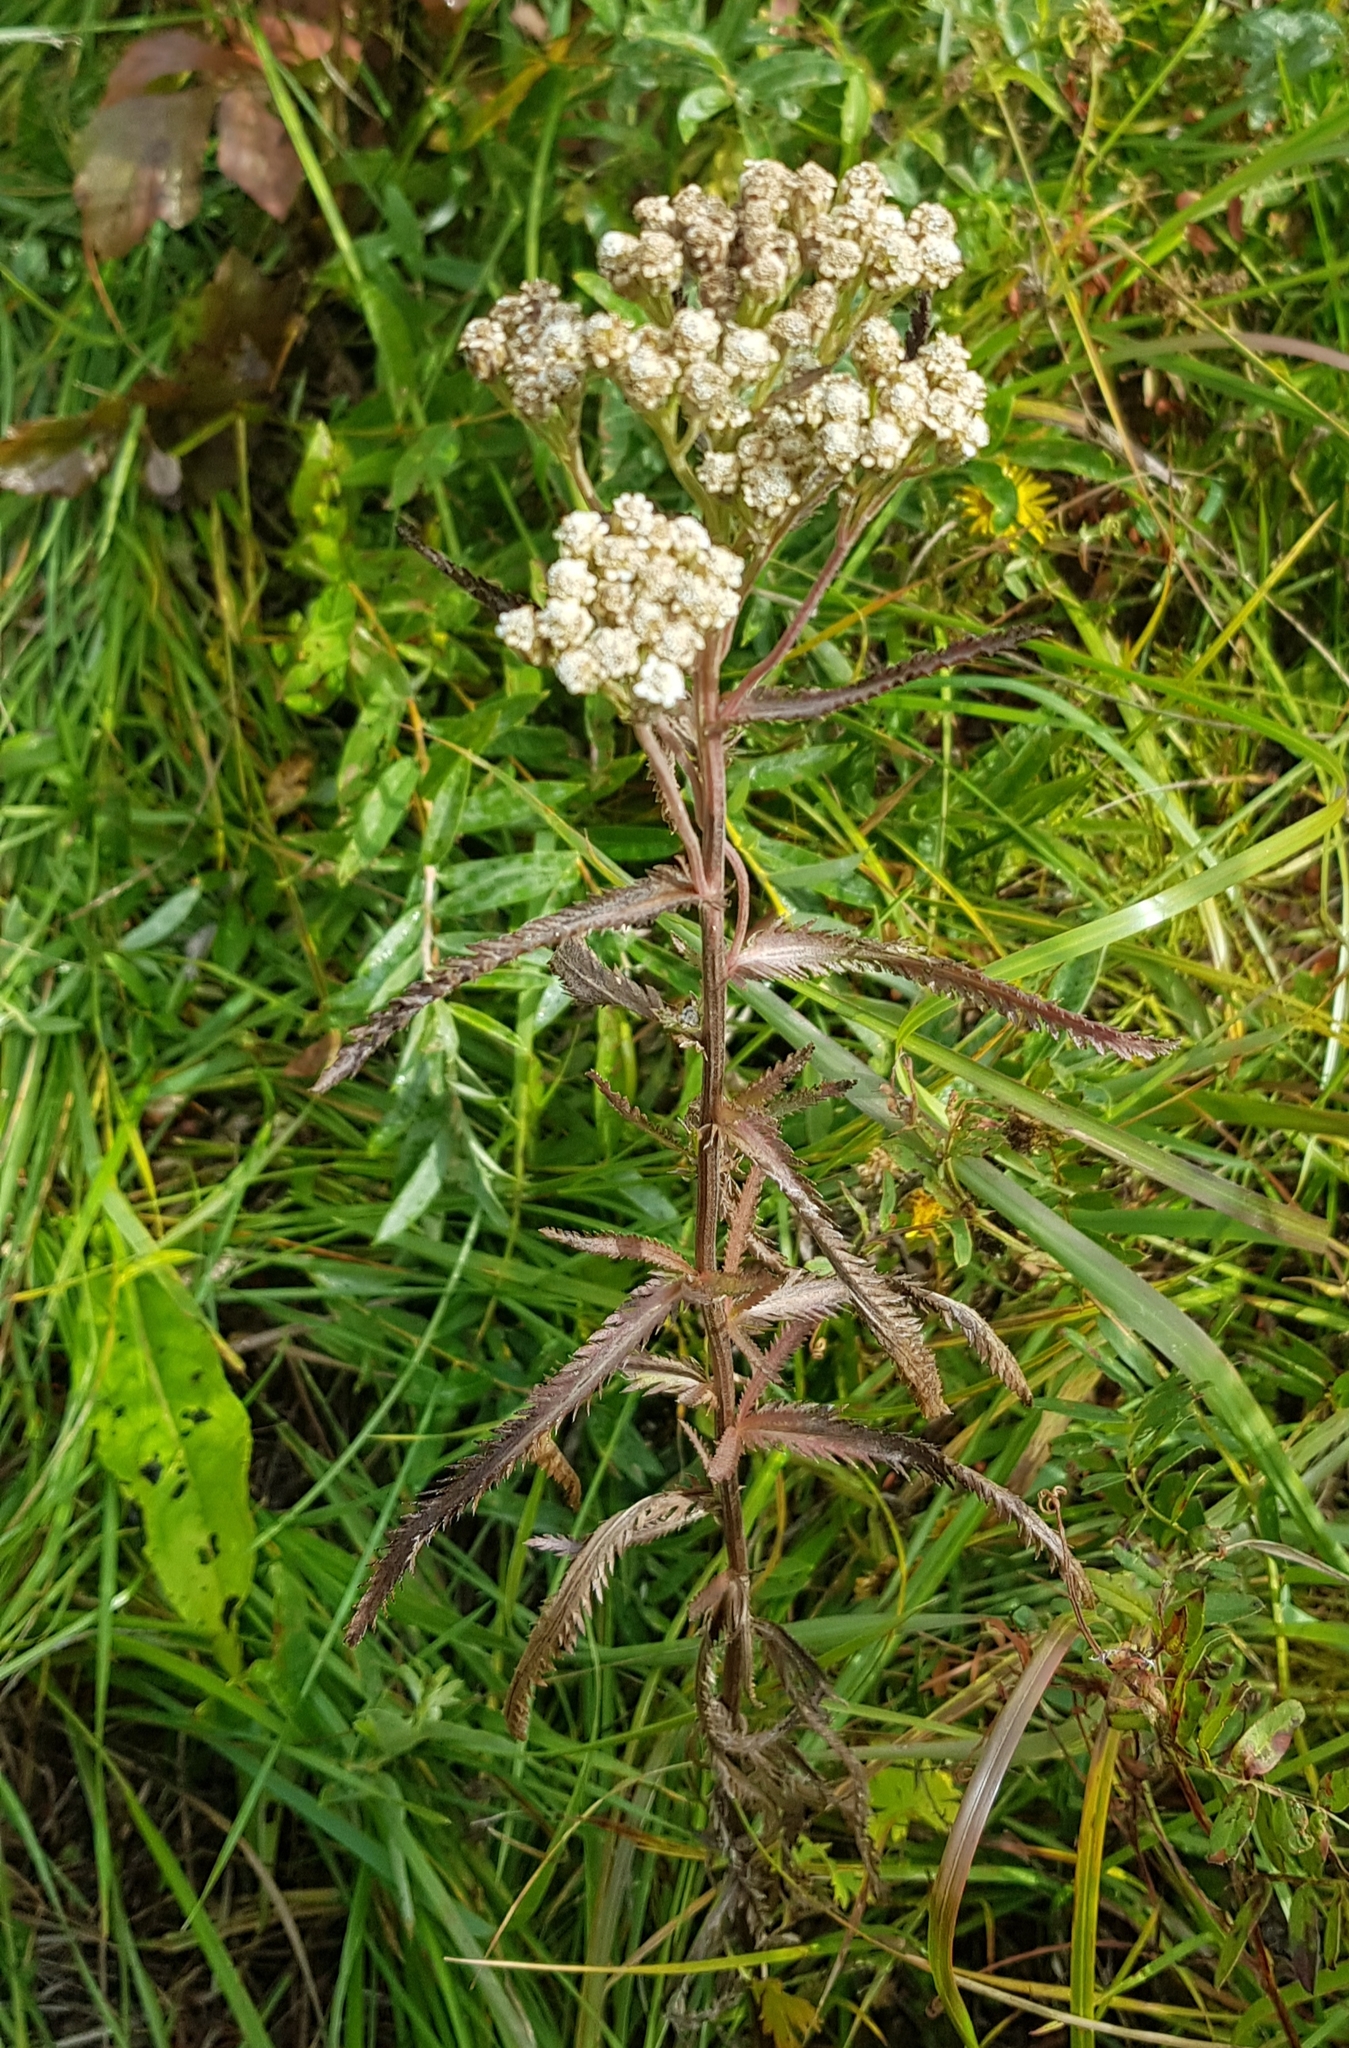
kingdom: Plantae
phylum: Tracheophyta
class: Magnoliopsida
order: Asterales
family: Asteraceae
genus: Achillea
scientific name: Achillea alpina
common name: Siberian yarrow
